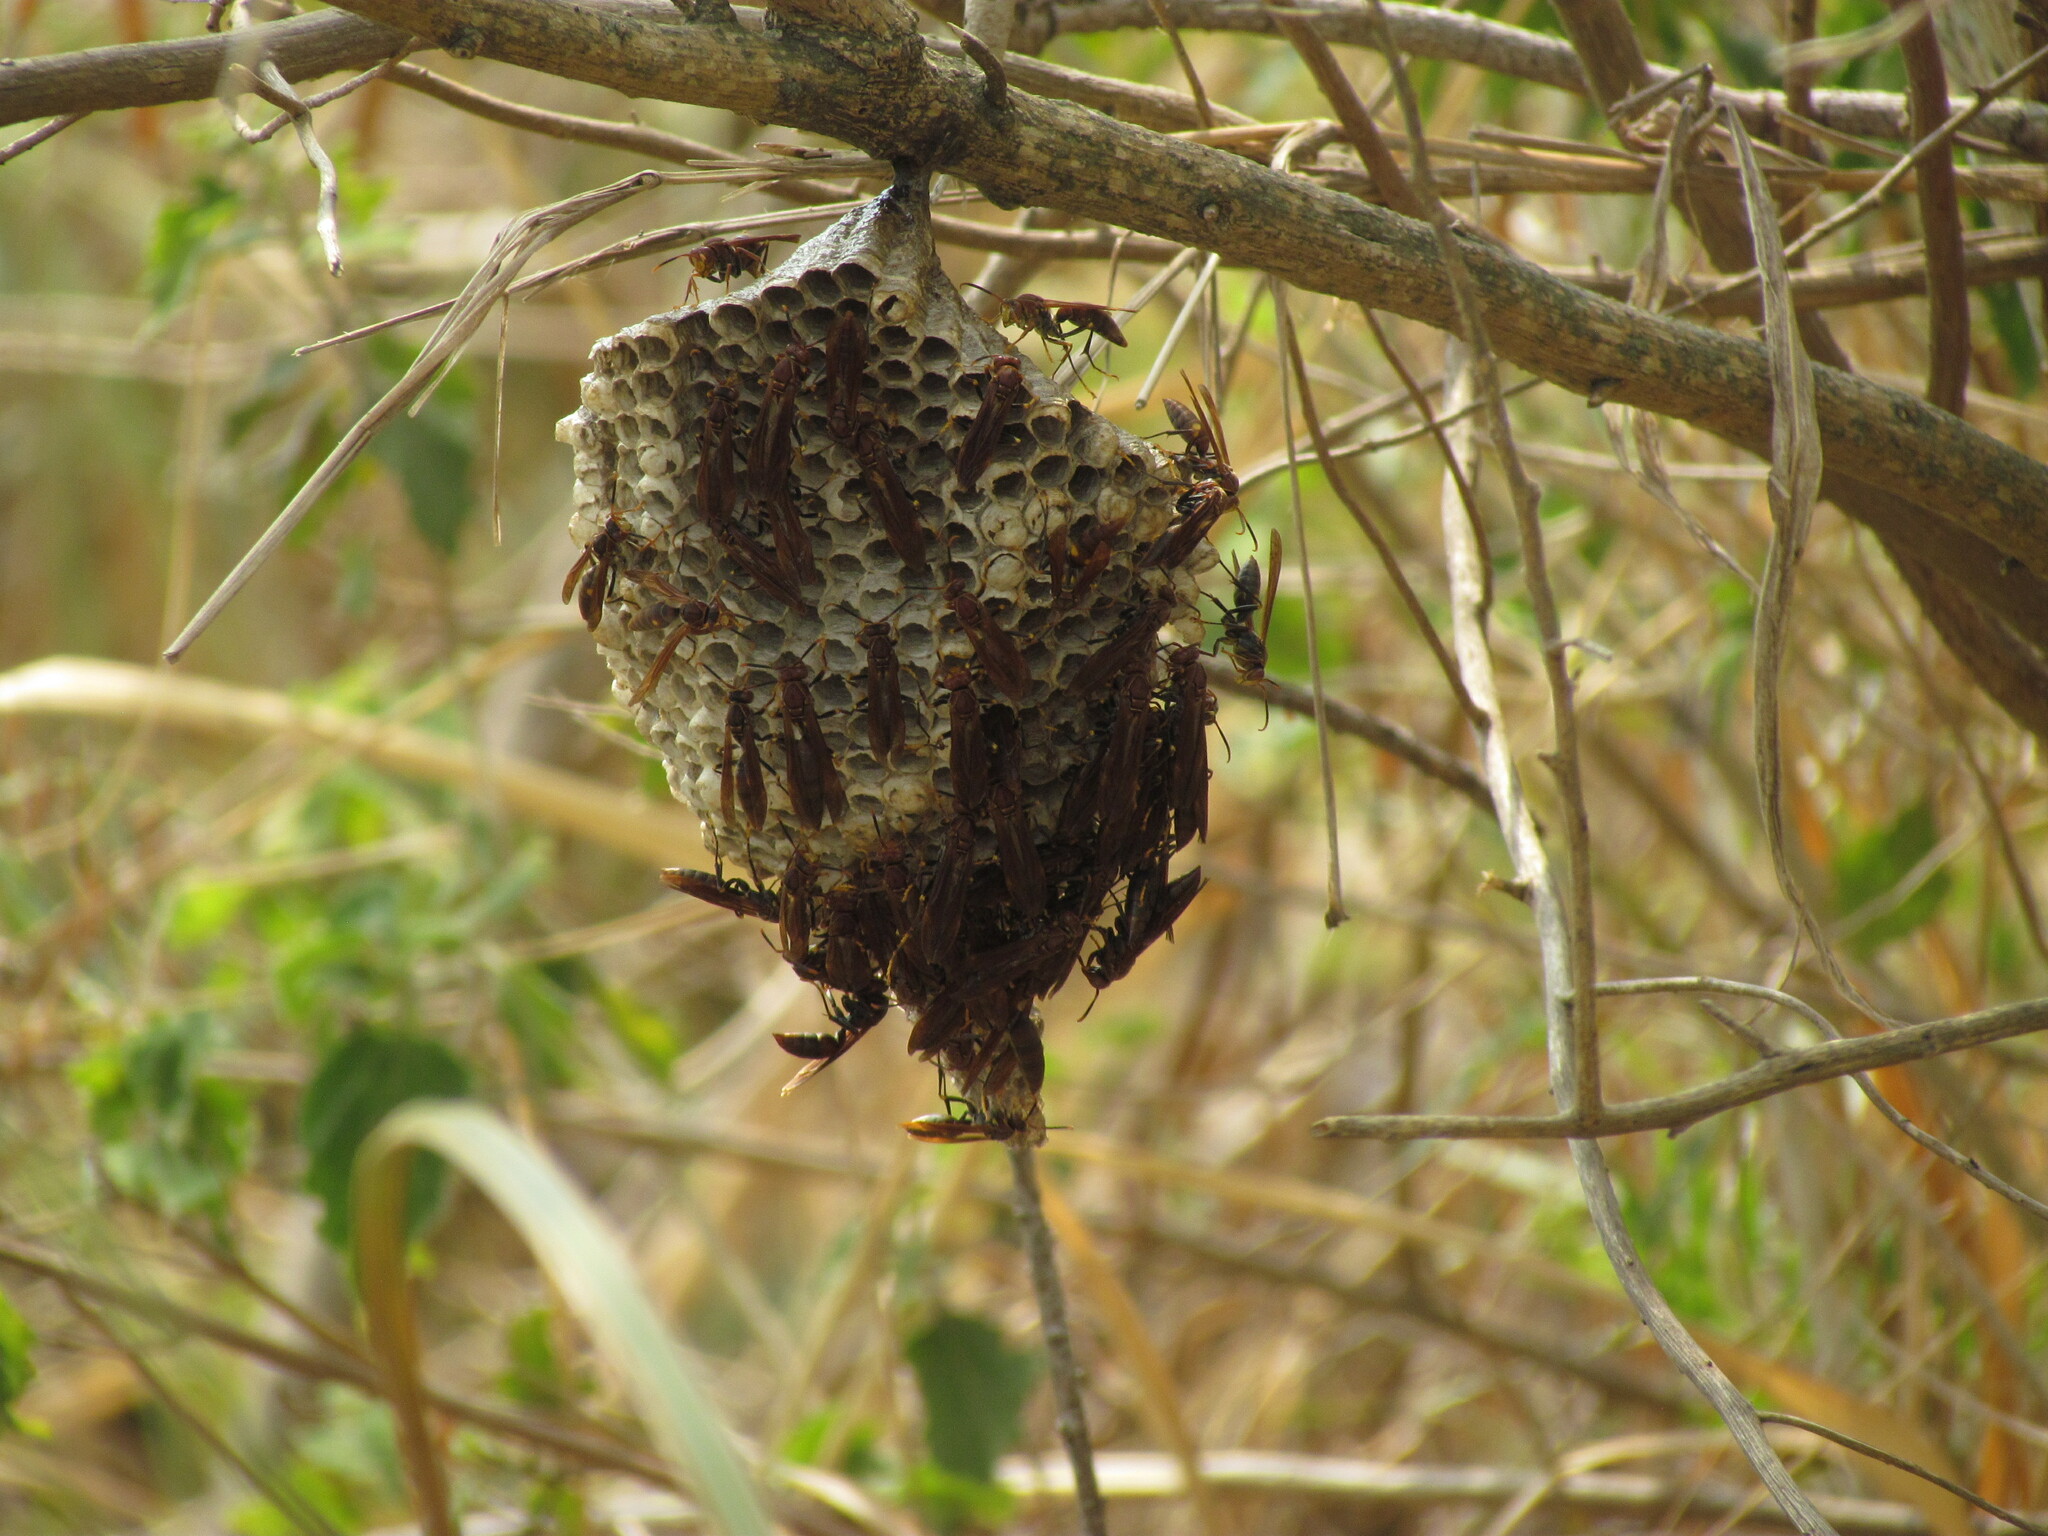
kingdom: Animalia
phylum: Arthropoda
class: Insecta
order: Hymenoptera
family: Pompilidae
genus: Aphanilopterus
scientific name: Aphanilopterus
